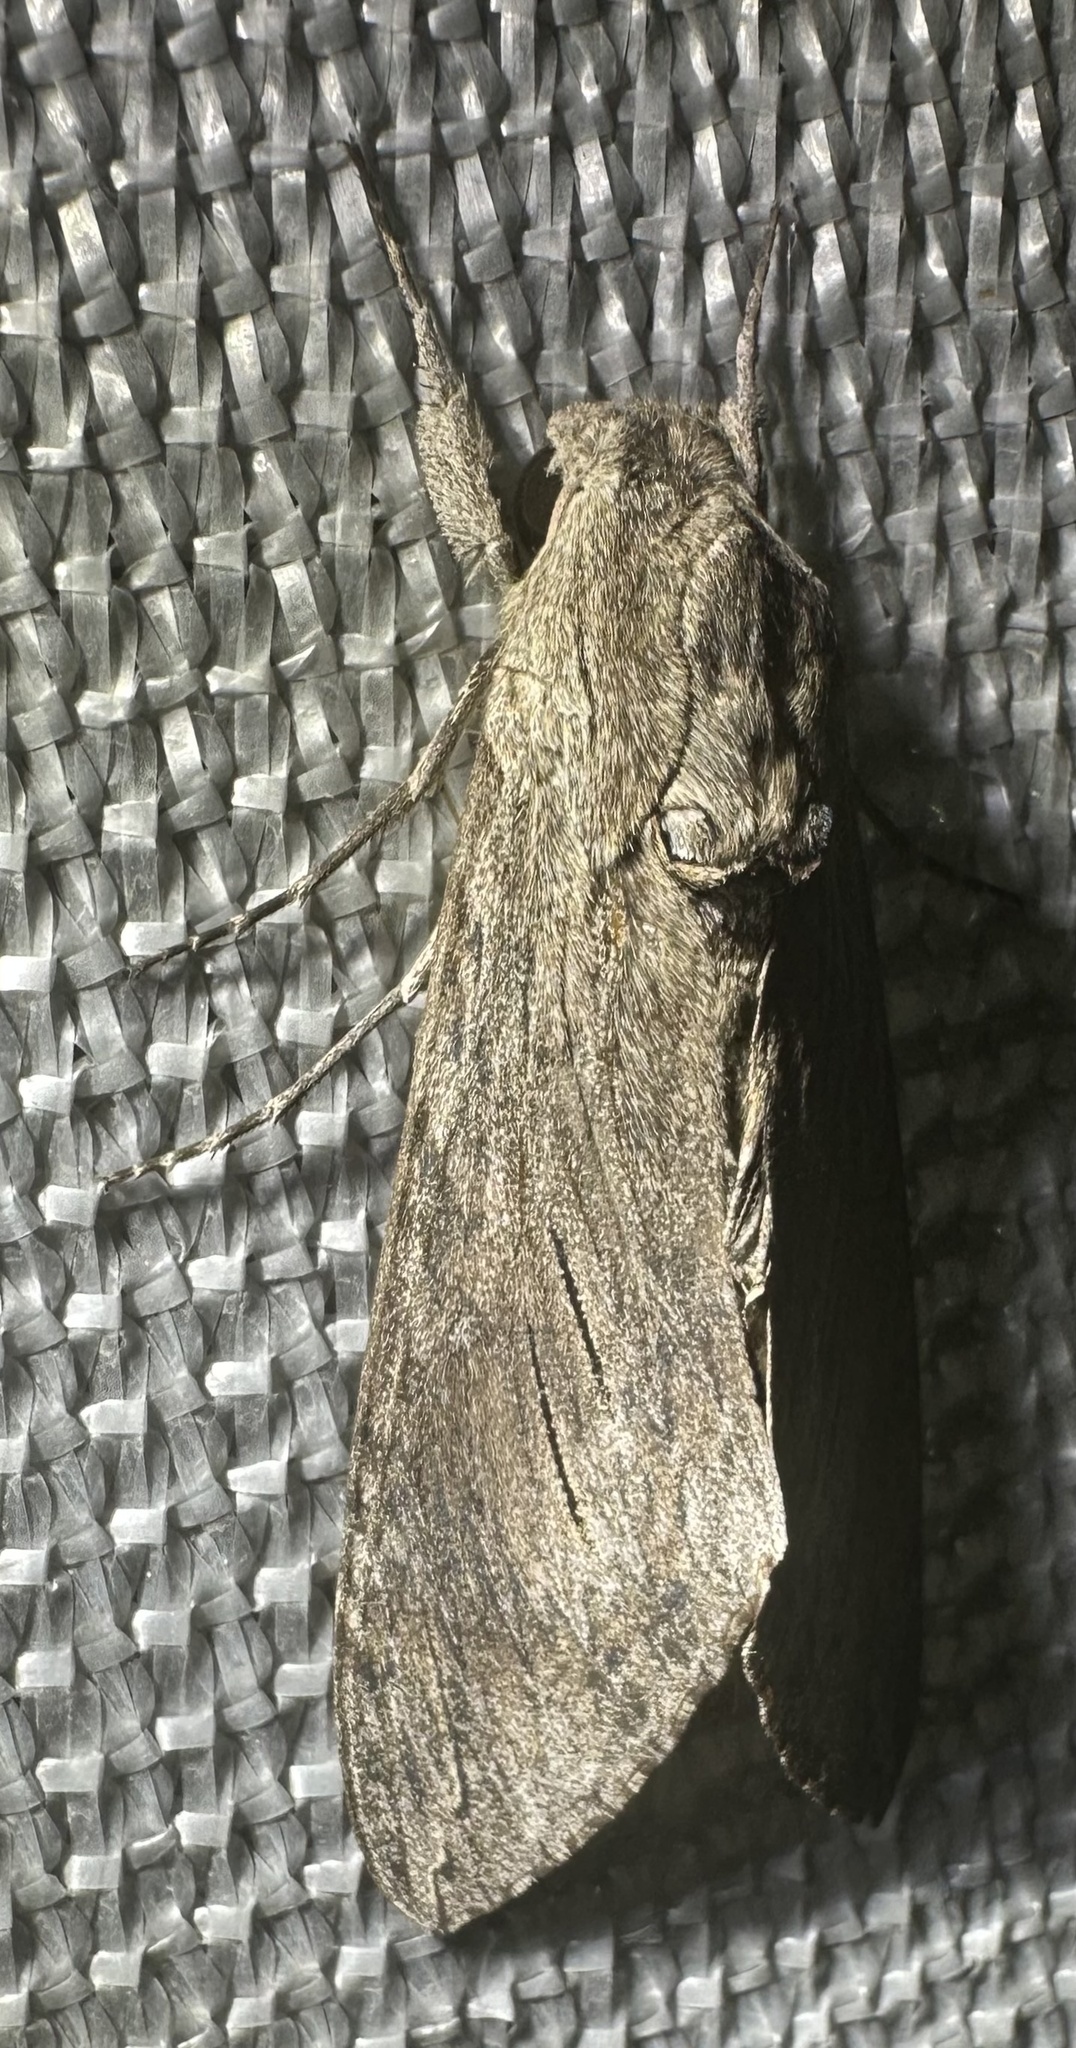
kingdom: Animalia
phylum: Arthropoda
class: Insecta
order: Lepidoptera
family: Sphingidae
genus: Agrius
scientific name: Agrius convolvuli
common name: Convolvulus hawkmoth
